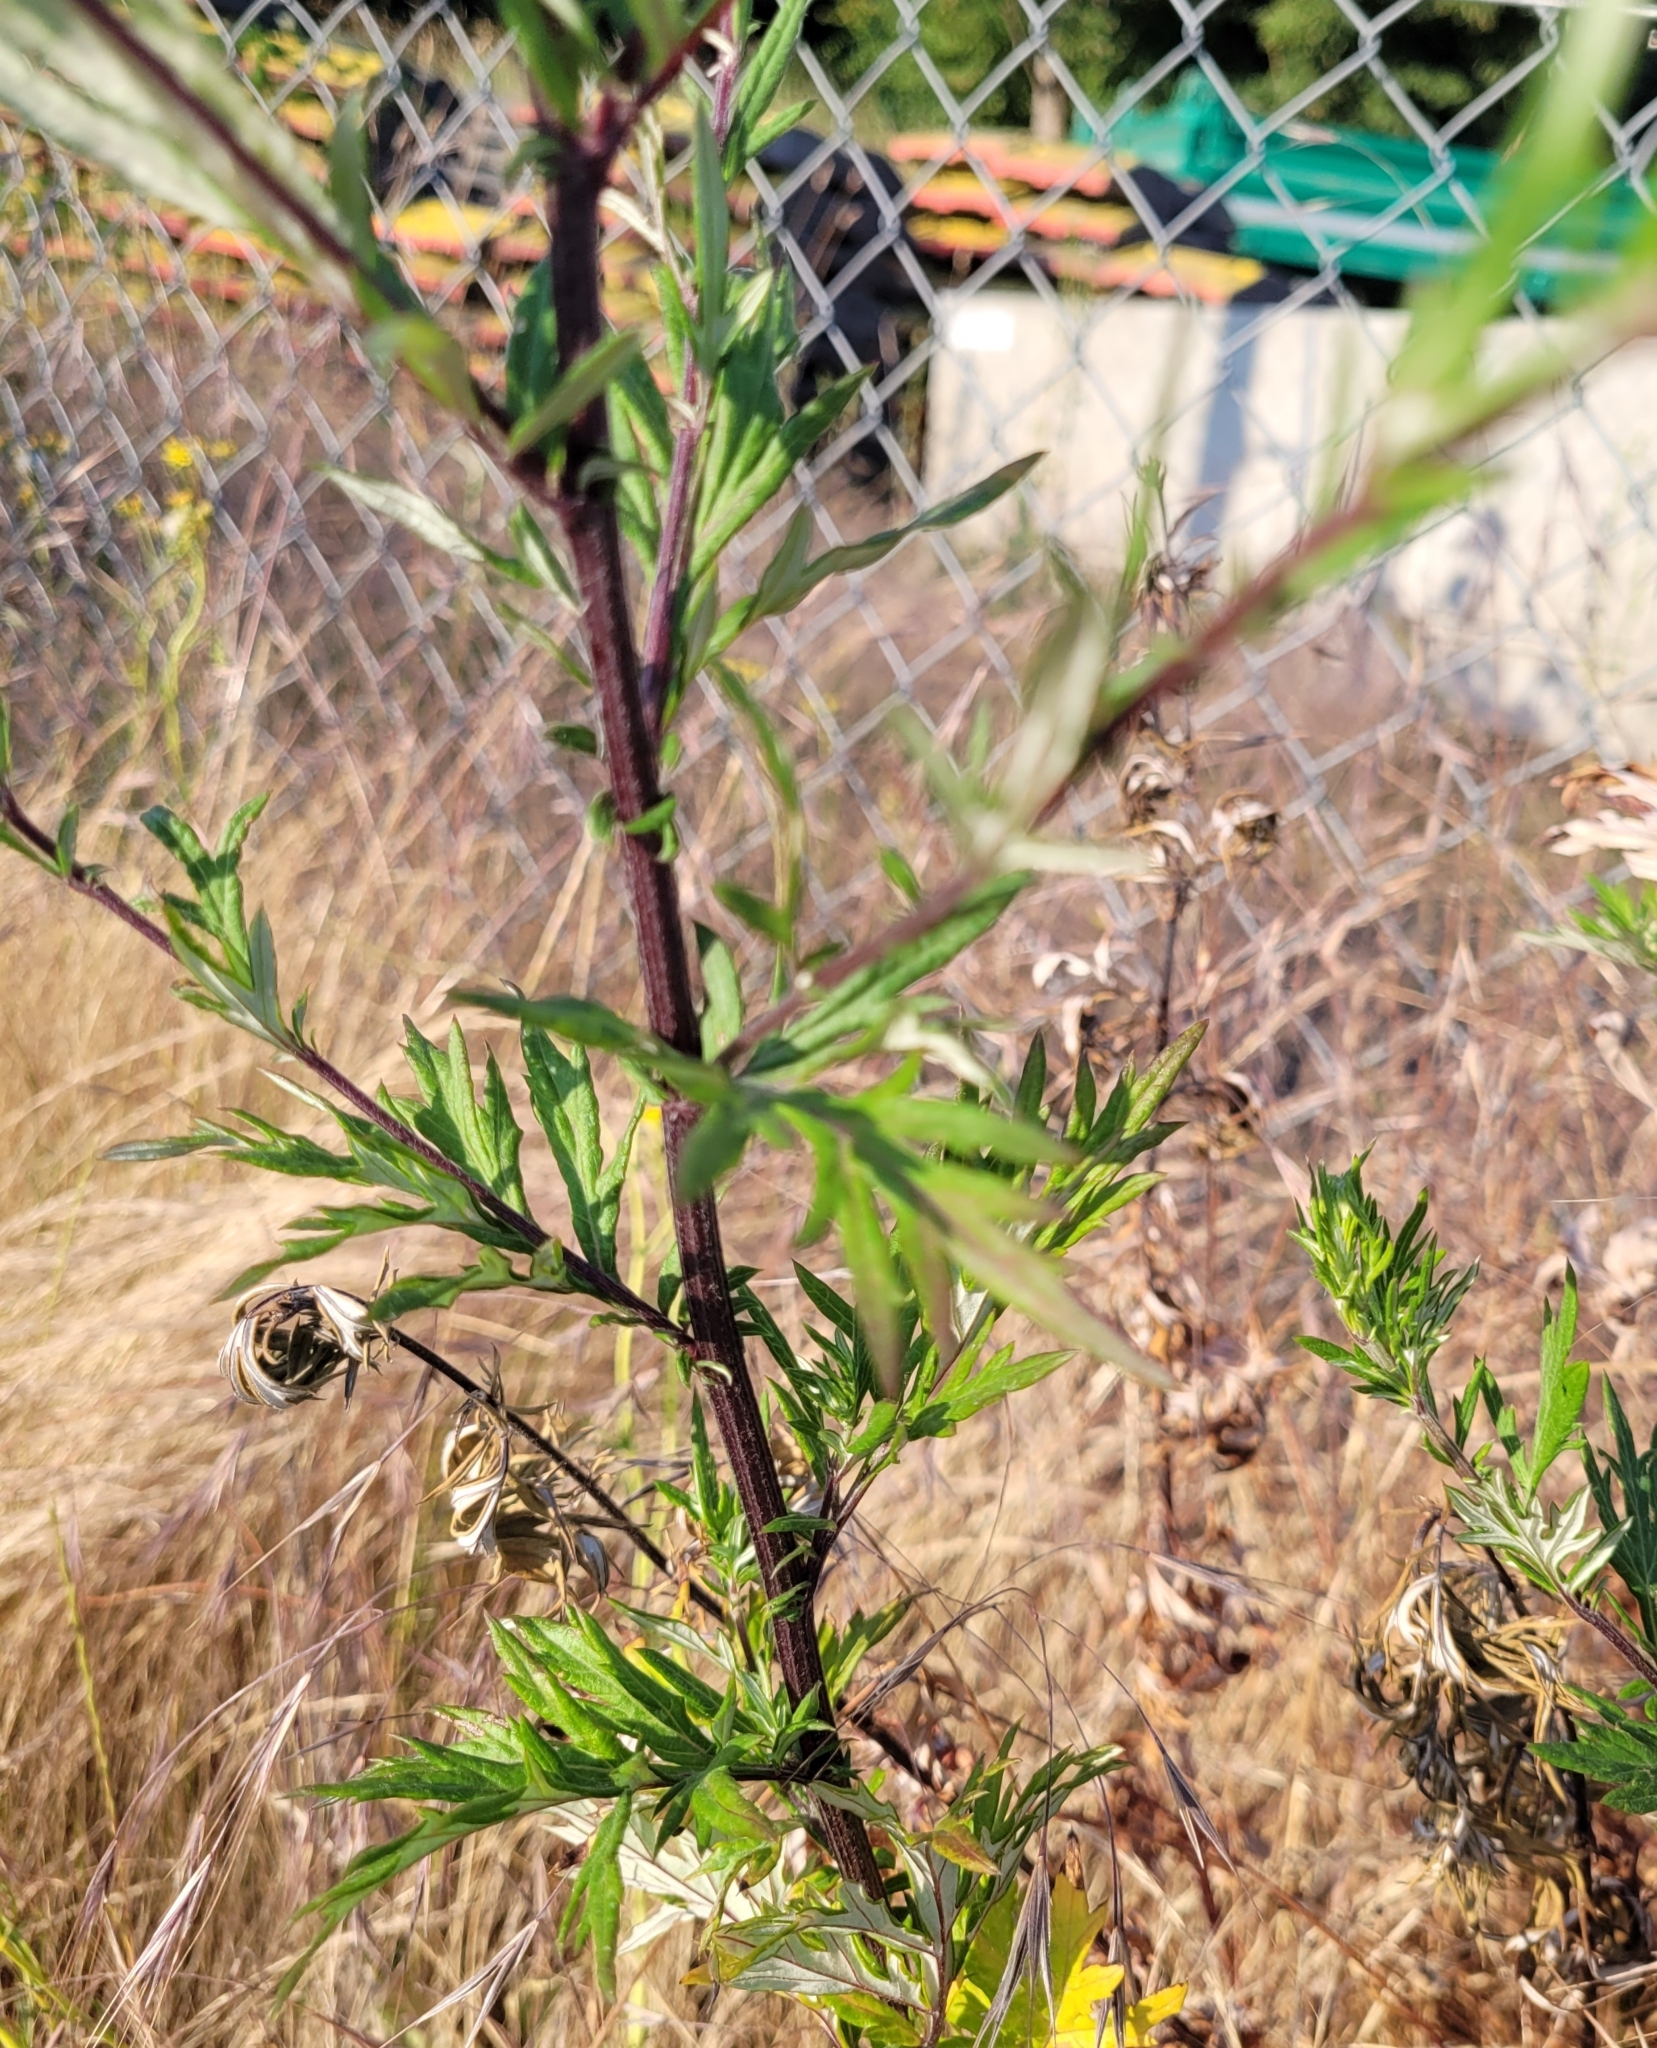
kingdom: Plantae
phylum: Tracheophyta
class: Magnoliopsida
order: Asterales
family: Asteraceae
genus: Artemisia
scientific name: Artemisia vulgaris
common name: Mugwort
